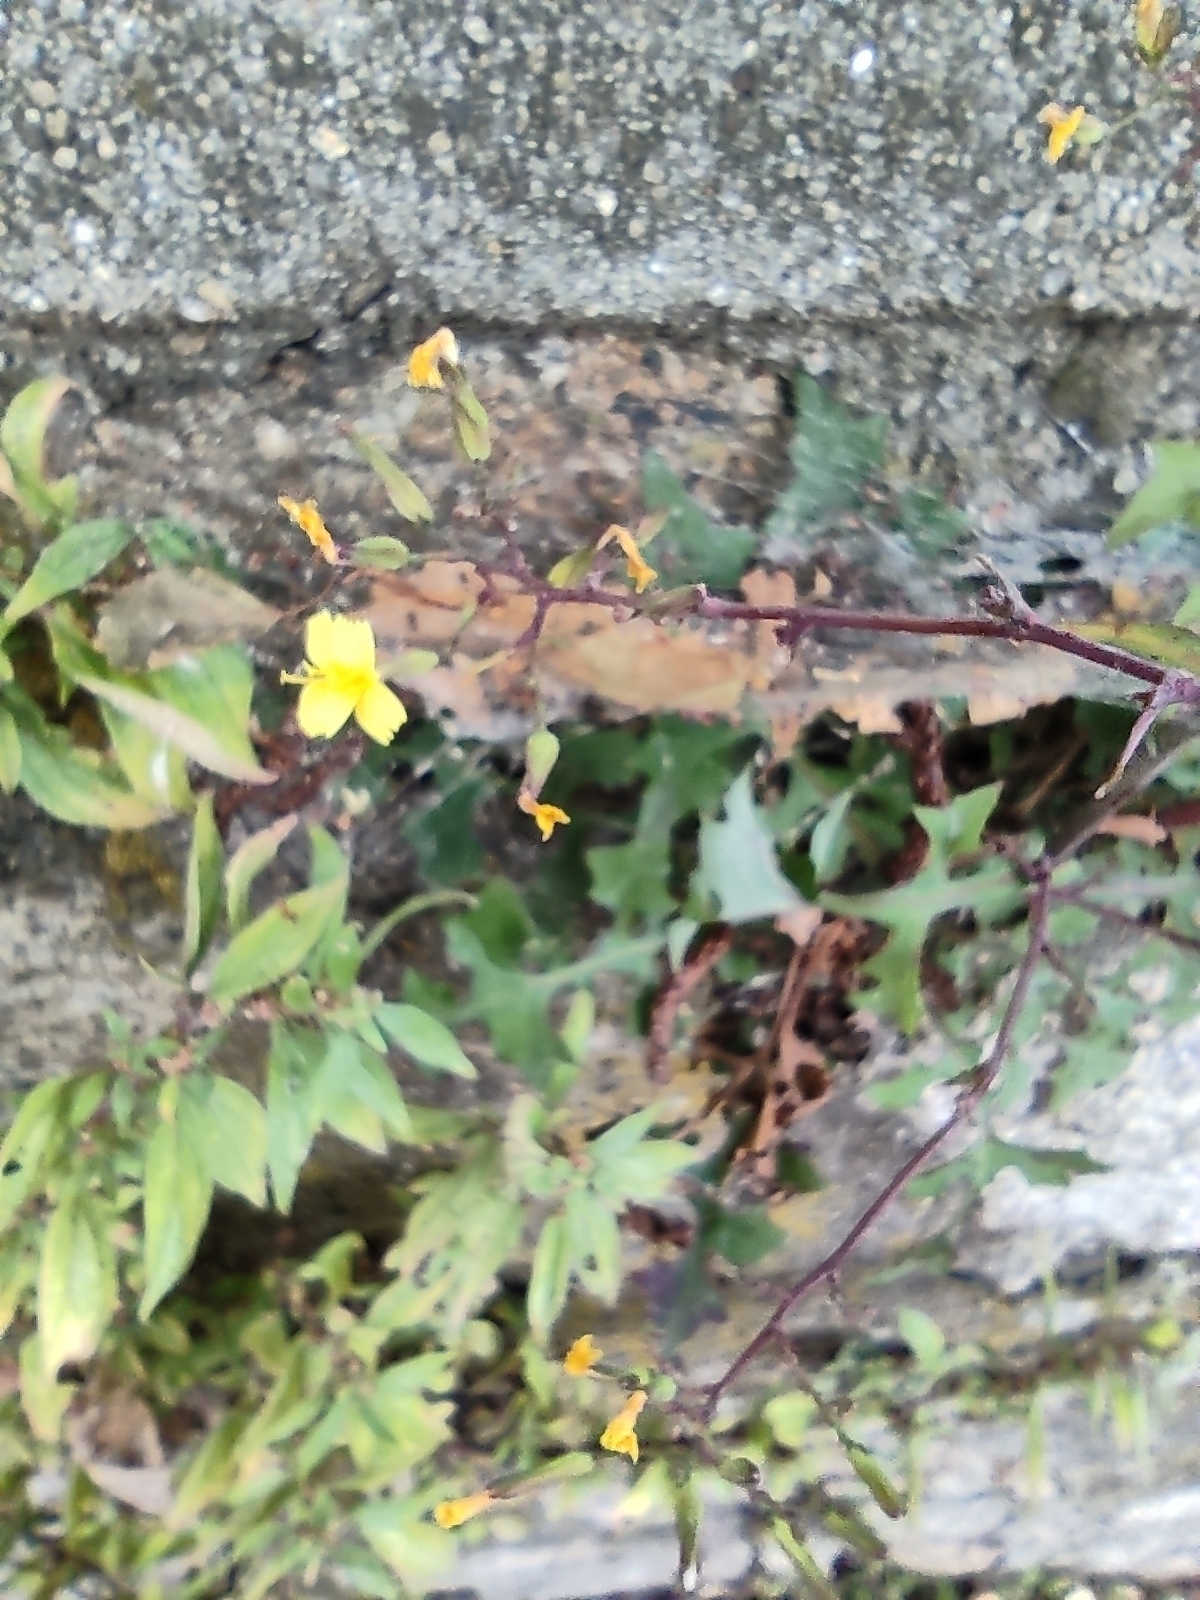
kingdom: Plantae
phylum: Tracheophyta
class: Magnoliopsida
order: Asterales
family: Asteraceae
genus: Mycelis
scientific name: Mycelis muralis
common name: Wall lettuce
